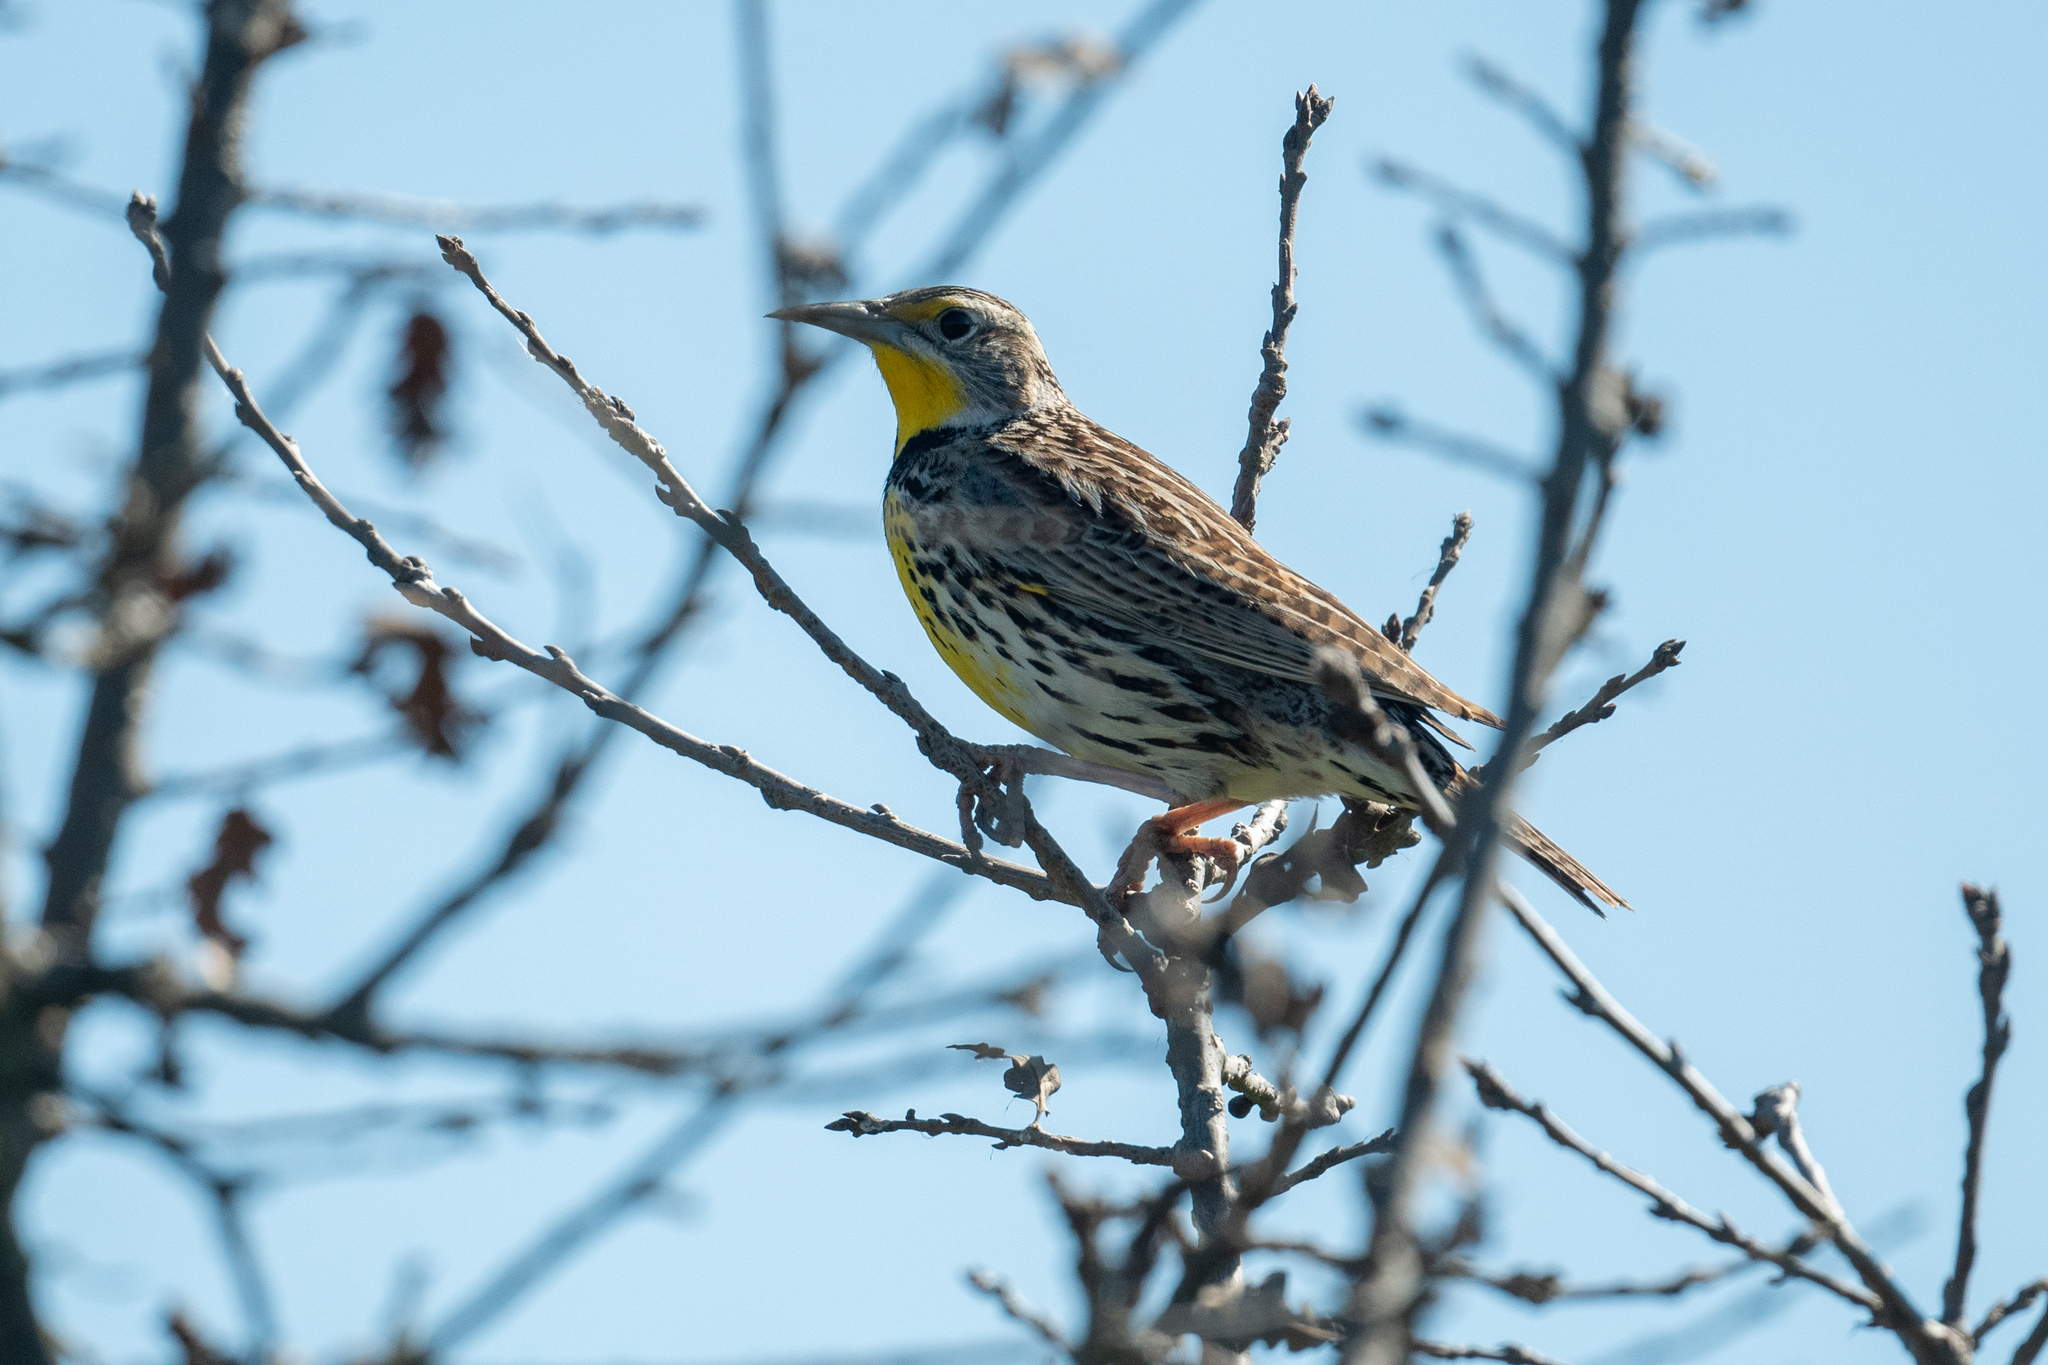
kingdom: Animalia
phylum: Chordata
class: Aves
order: Passeriformes
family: Icteridae
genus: Sturnella
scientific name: Sturnella neglecta
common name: Western meadowlark
